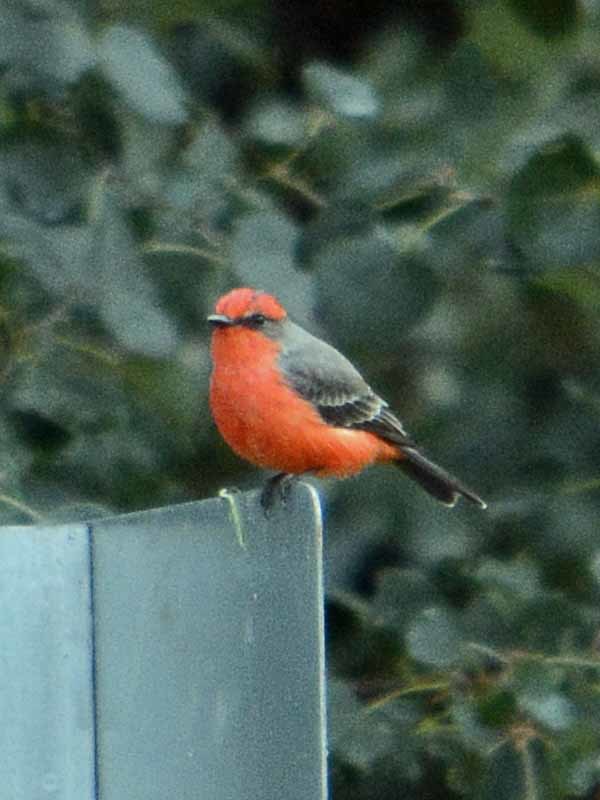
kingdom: Animalia
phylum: Chordata
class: Aves
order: Passeriformes
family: Tyrannidae
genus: Pyrocephalus
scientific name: Pyrocephalus rubinus
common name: Vermilion flycatcher
